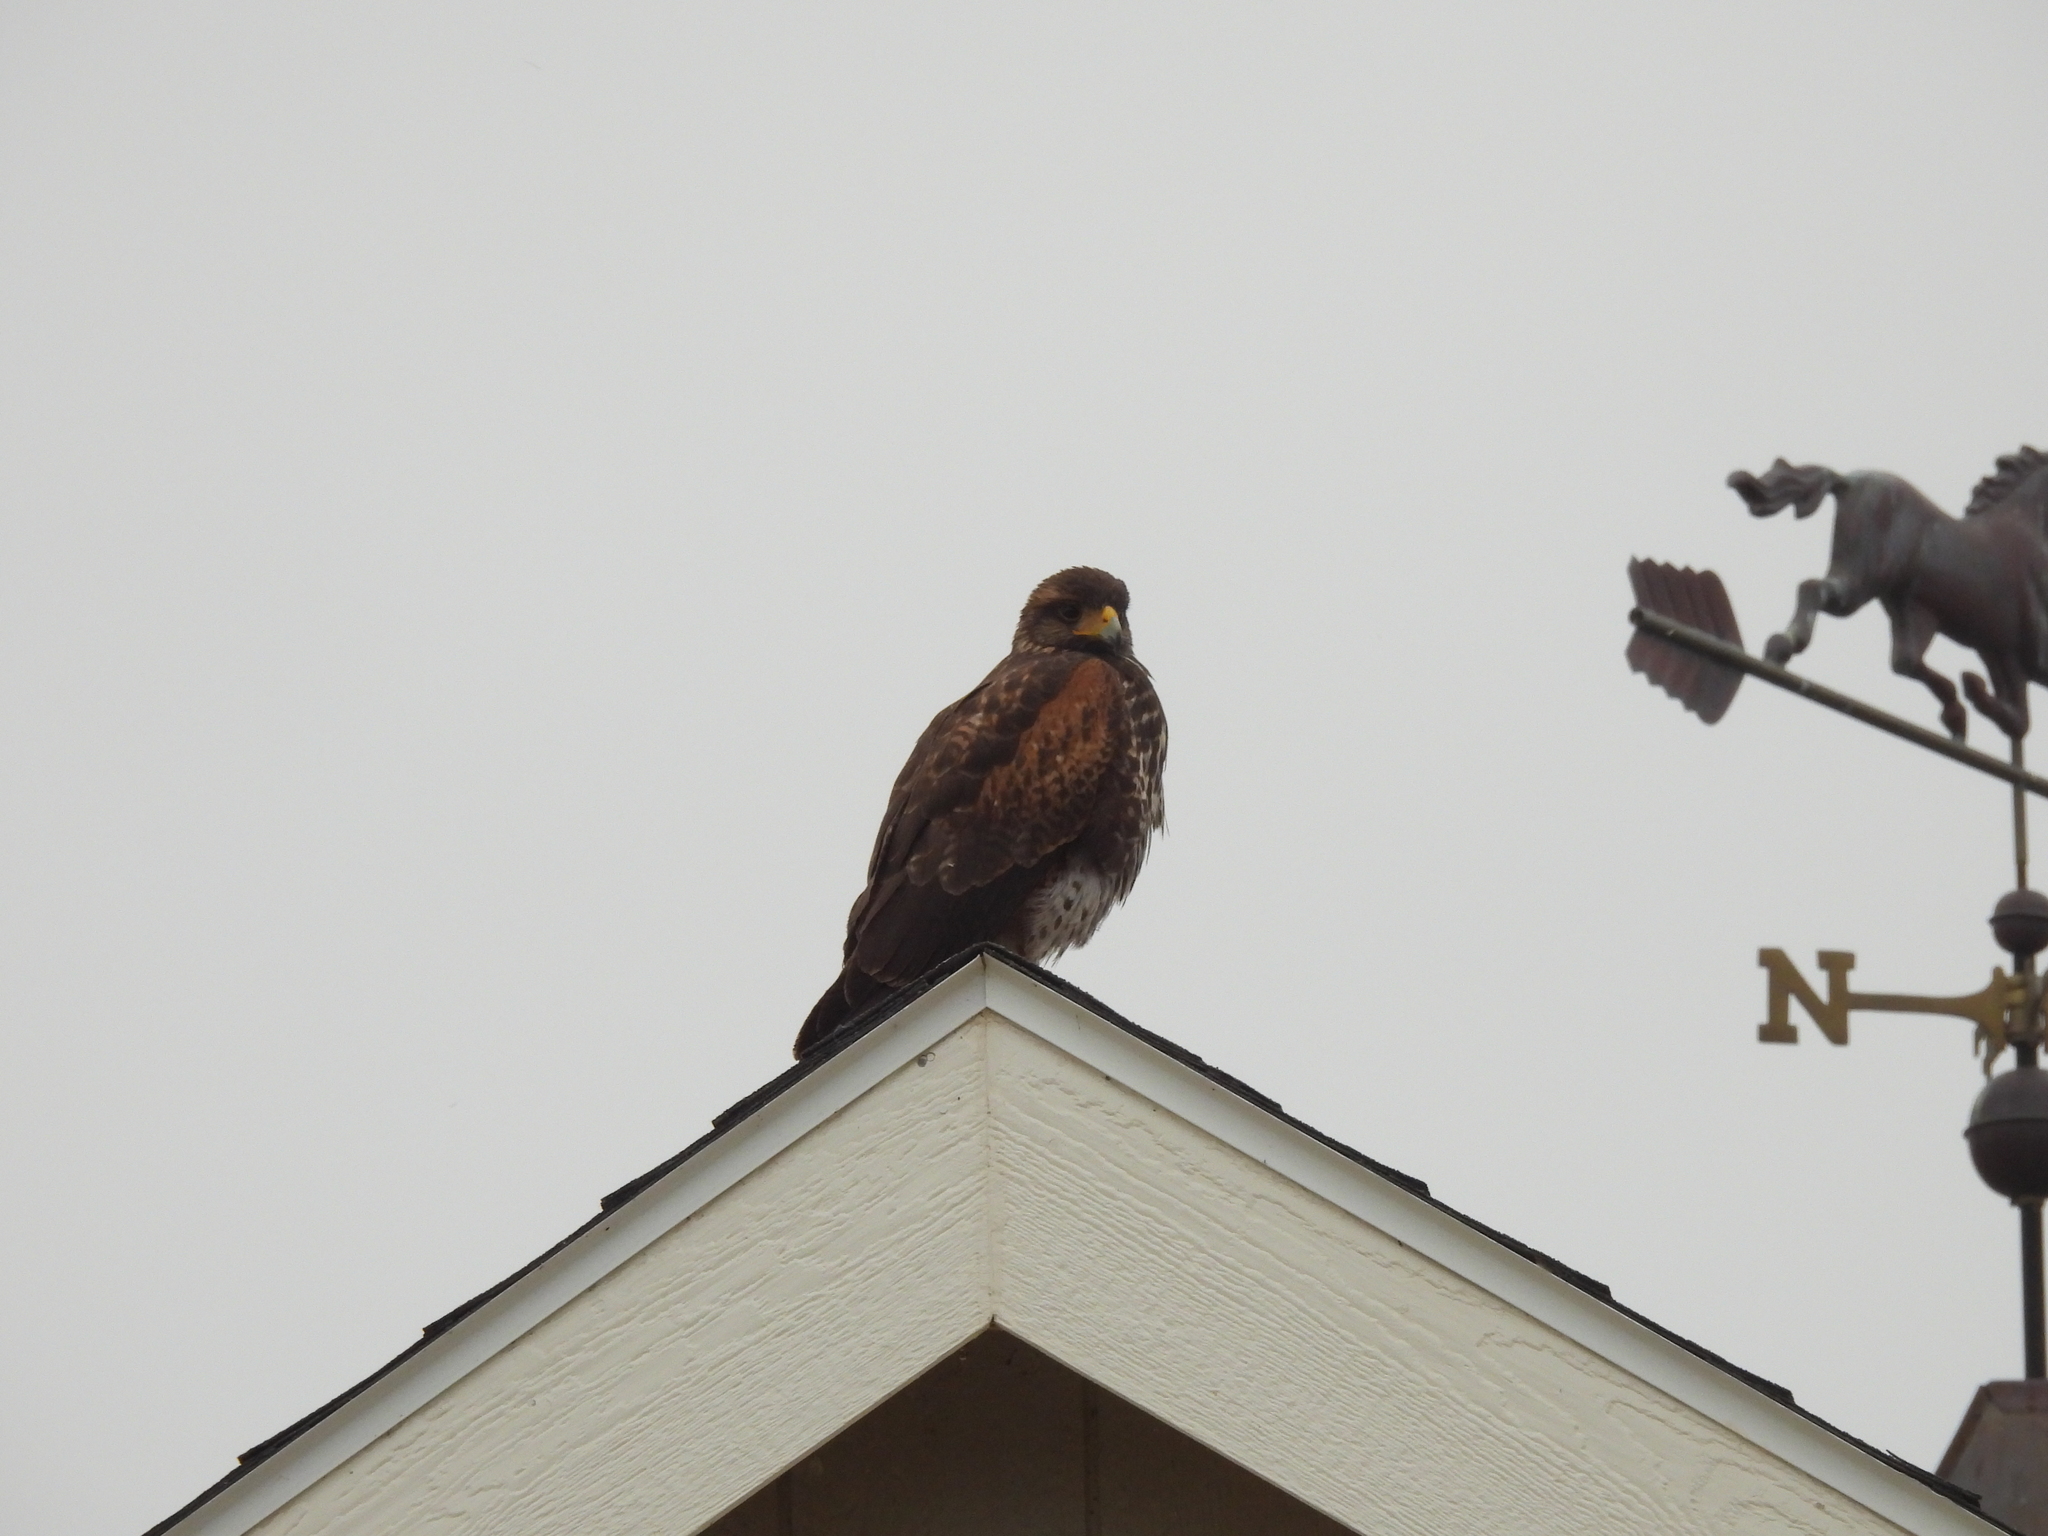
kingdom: Animalia
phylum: Chordata
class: Aves
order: Accipitriformes
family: Accipitridae
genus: Parabuteo
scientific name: Parabuteo unicinctus
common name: Harris's hawk
